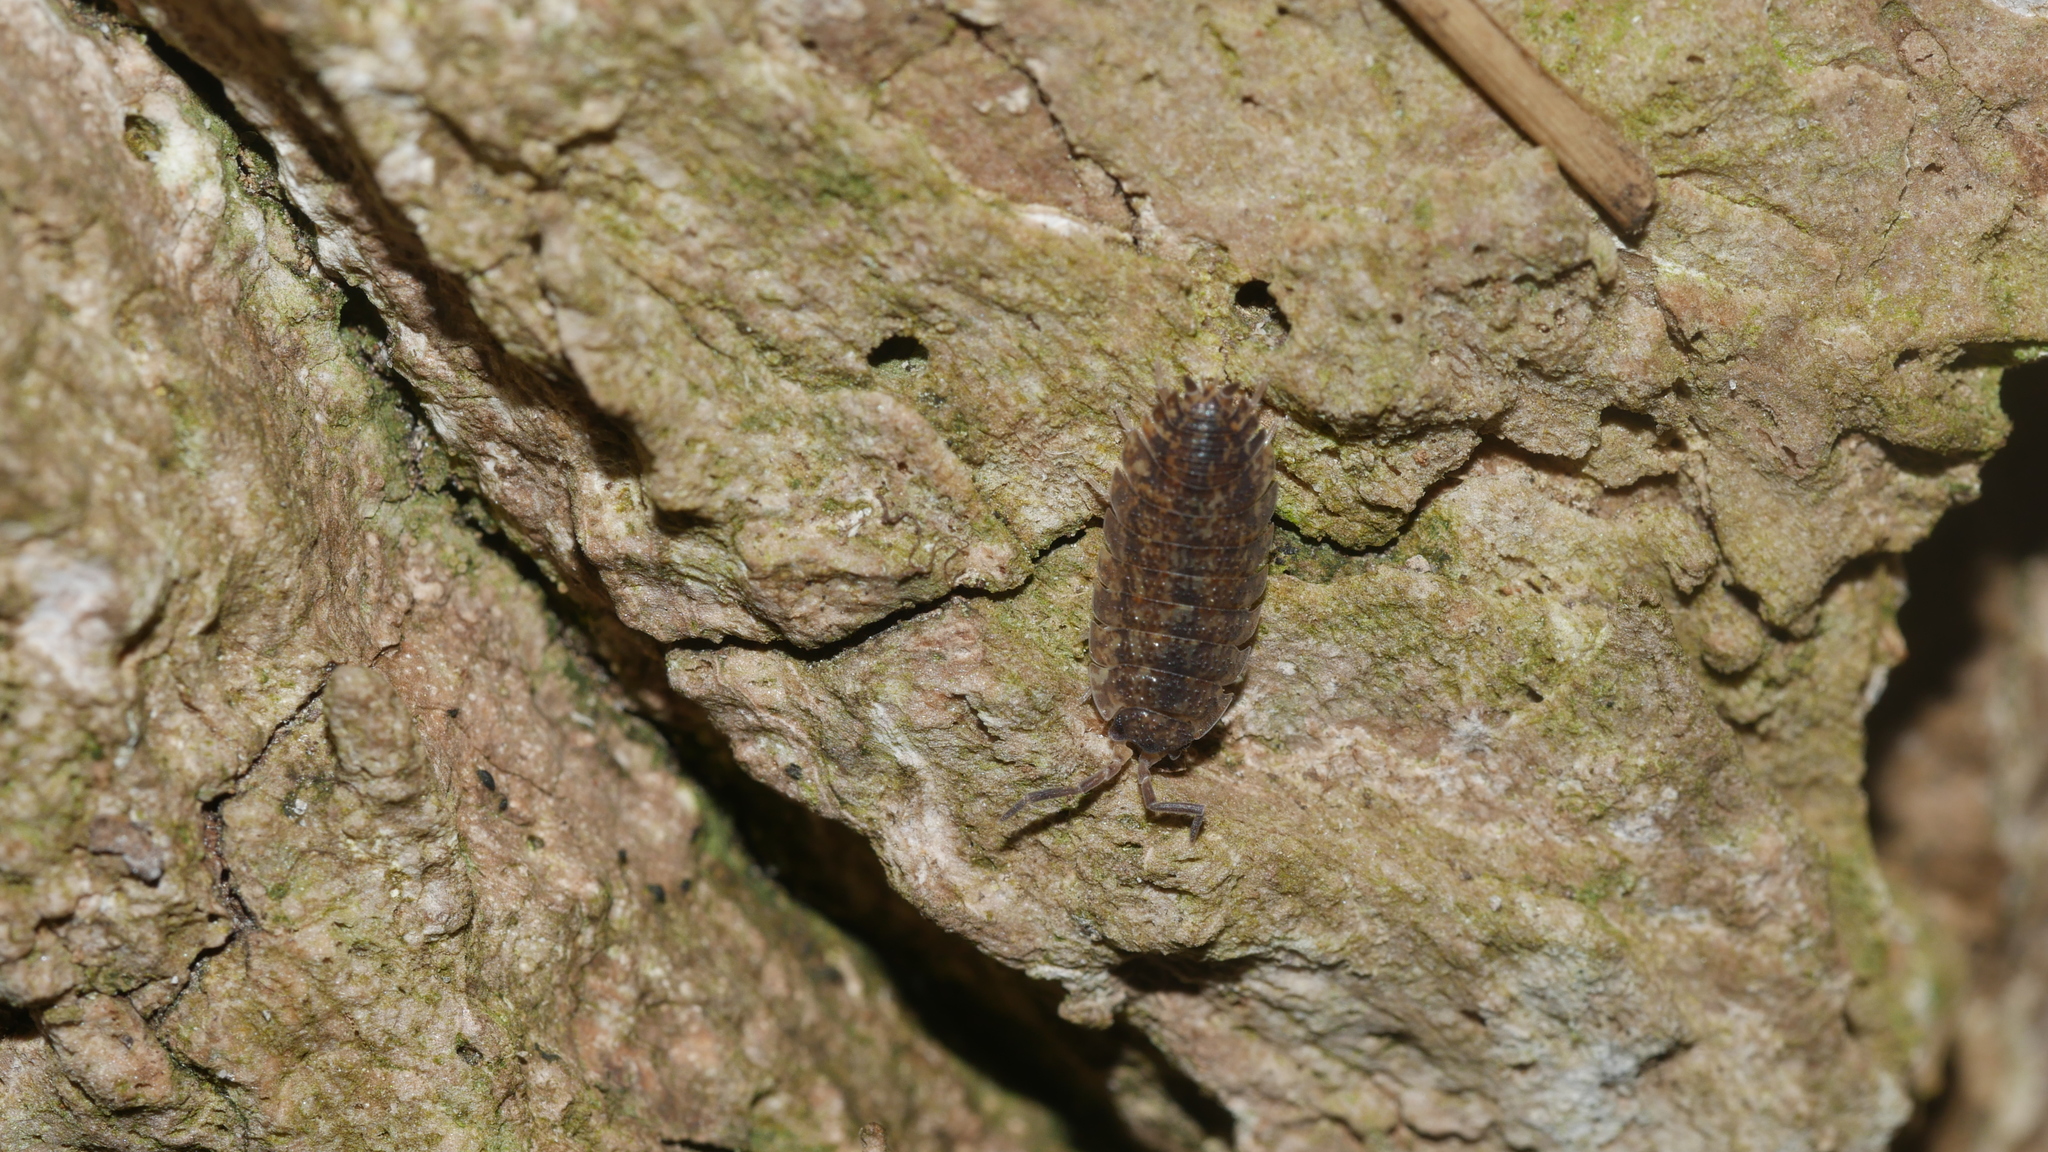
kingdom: Animalia
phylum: Arthropoda
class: Malacostraca
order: Isopoda
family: Porcellionidae
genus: Porcellio
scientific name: Porcellio scaber
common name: Common rough woodlouse
